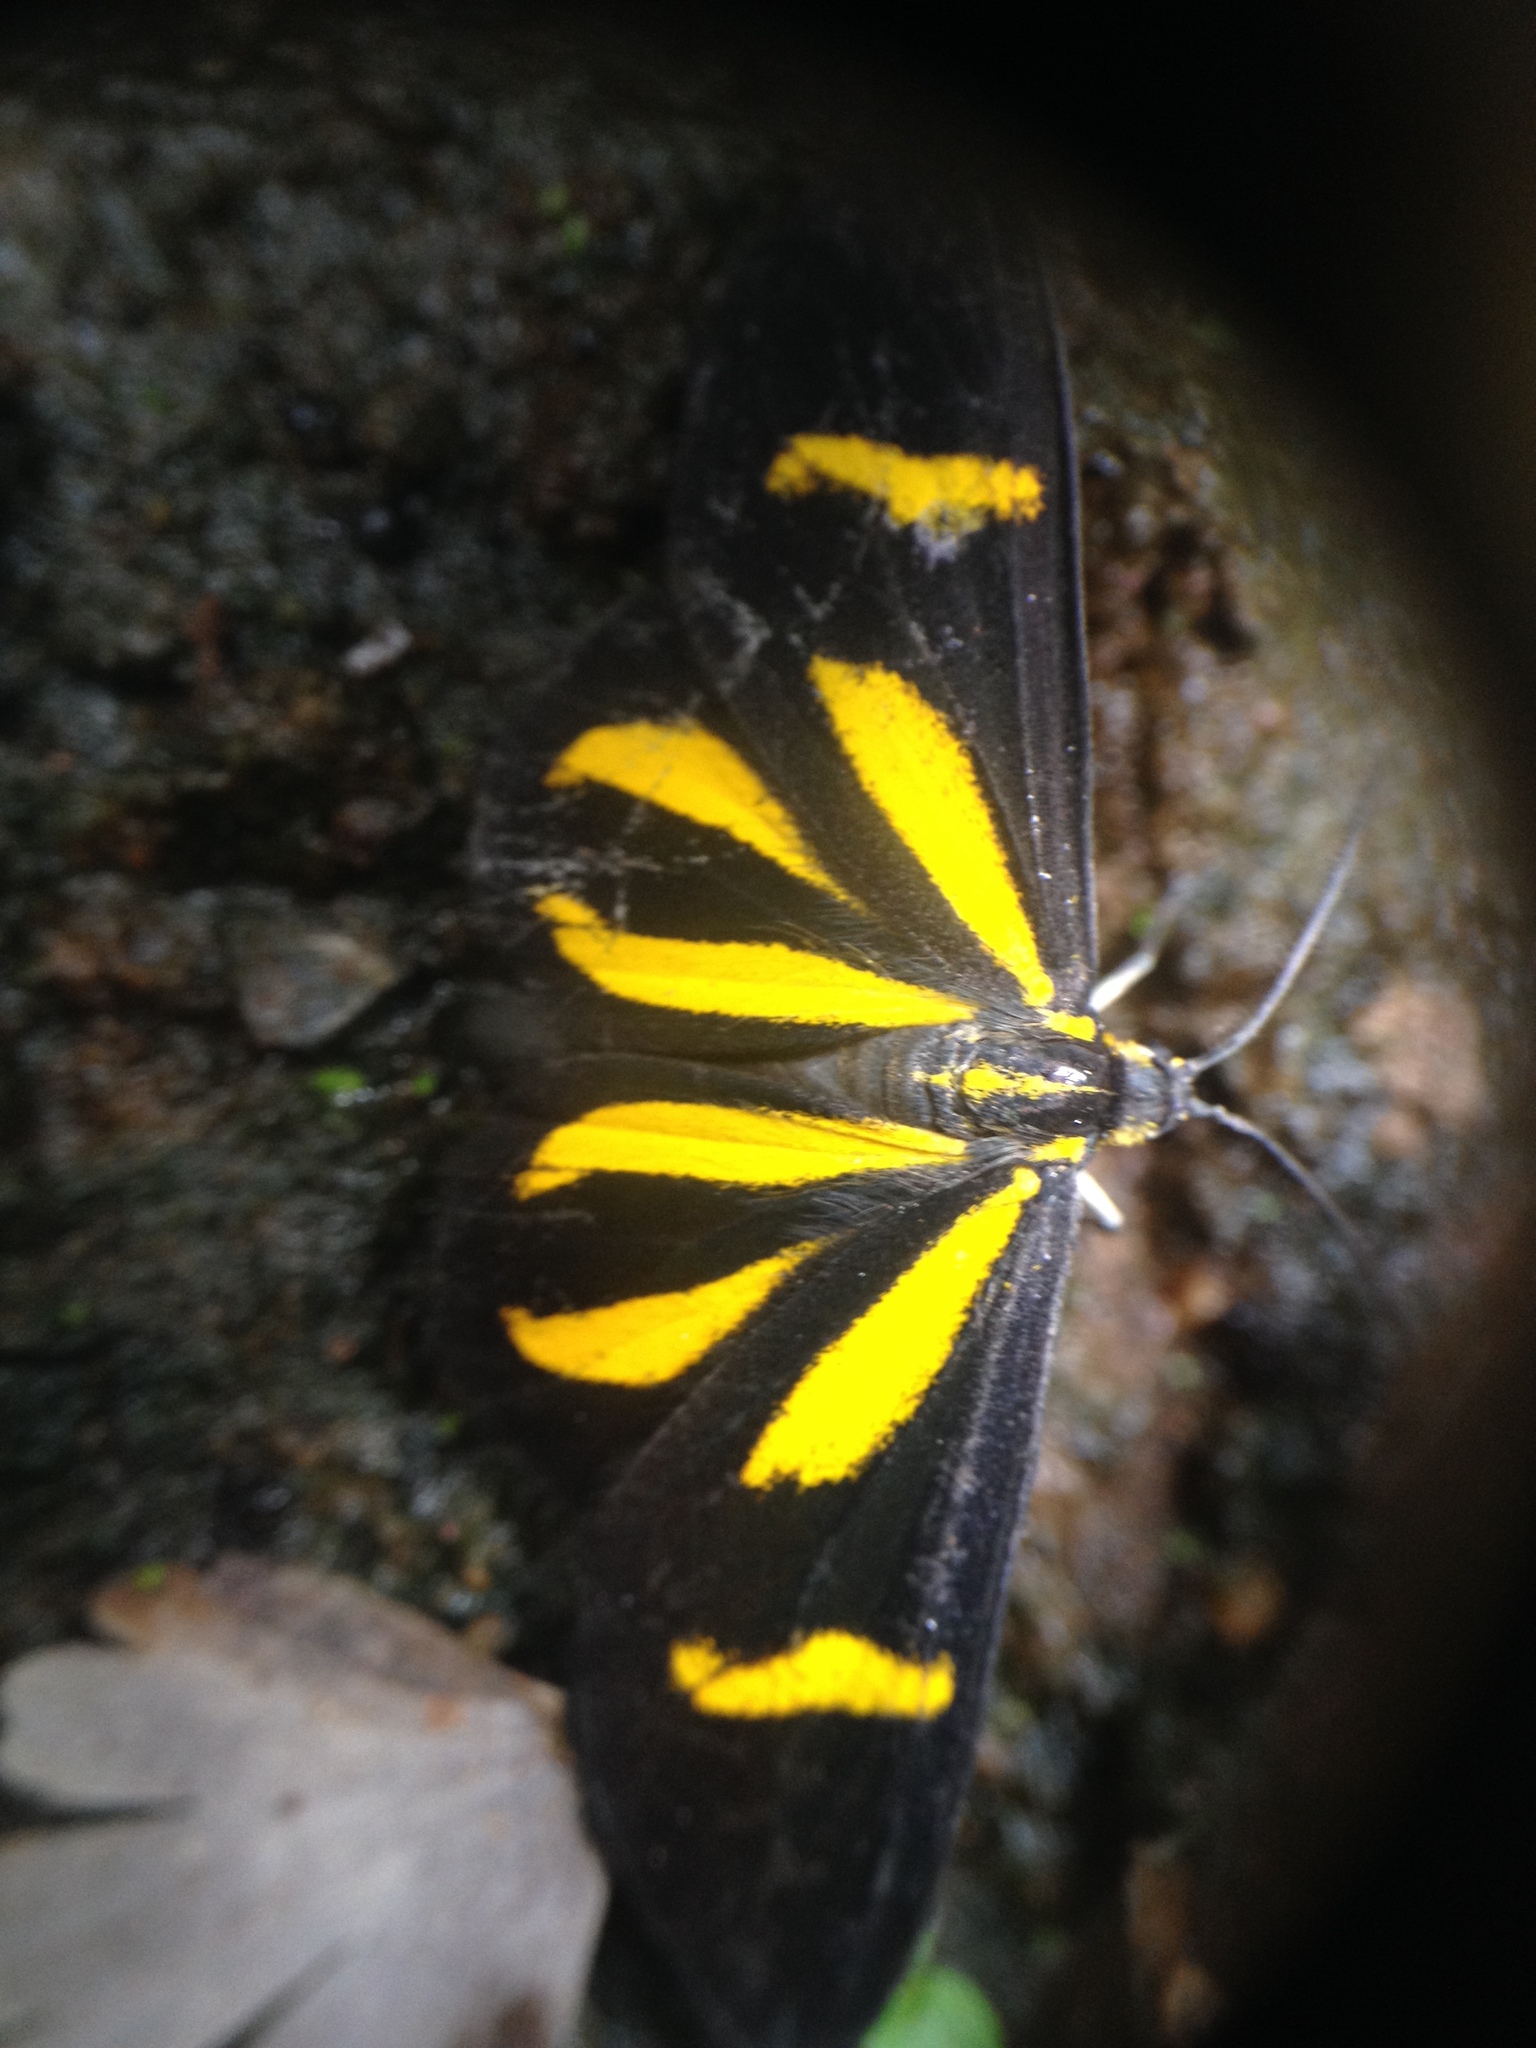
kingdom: Animalia
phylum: Arthropoda
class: Insecta
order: Lepidoptera
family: Geometridae
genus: Cyllopoda
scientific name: Cyllopoda claudicula
